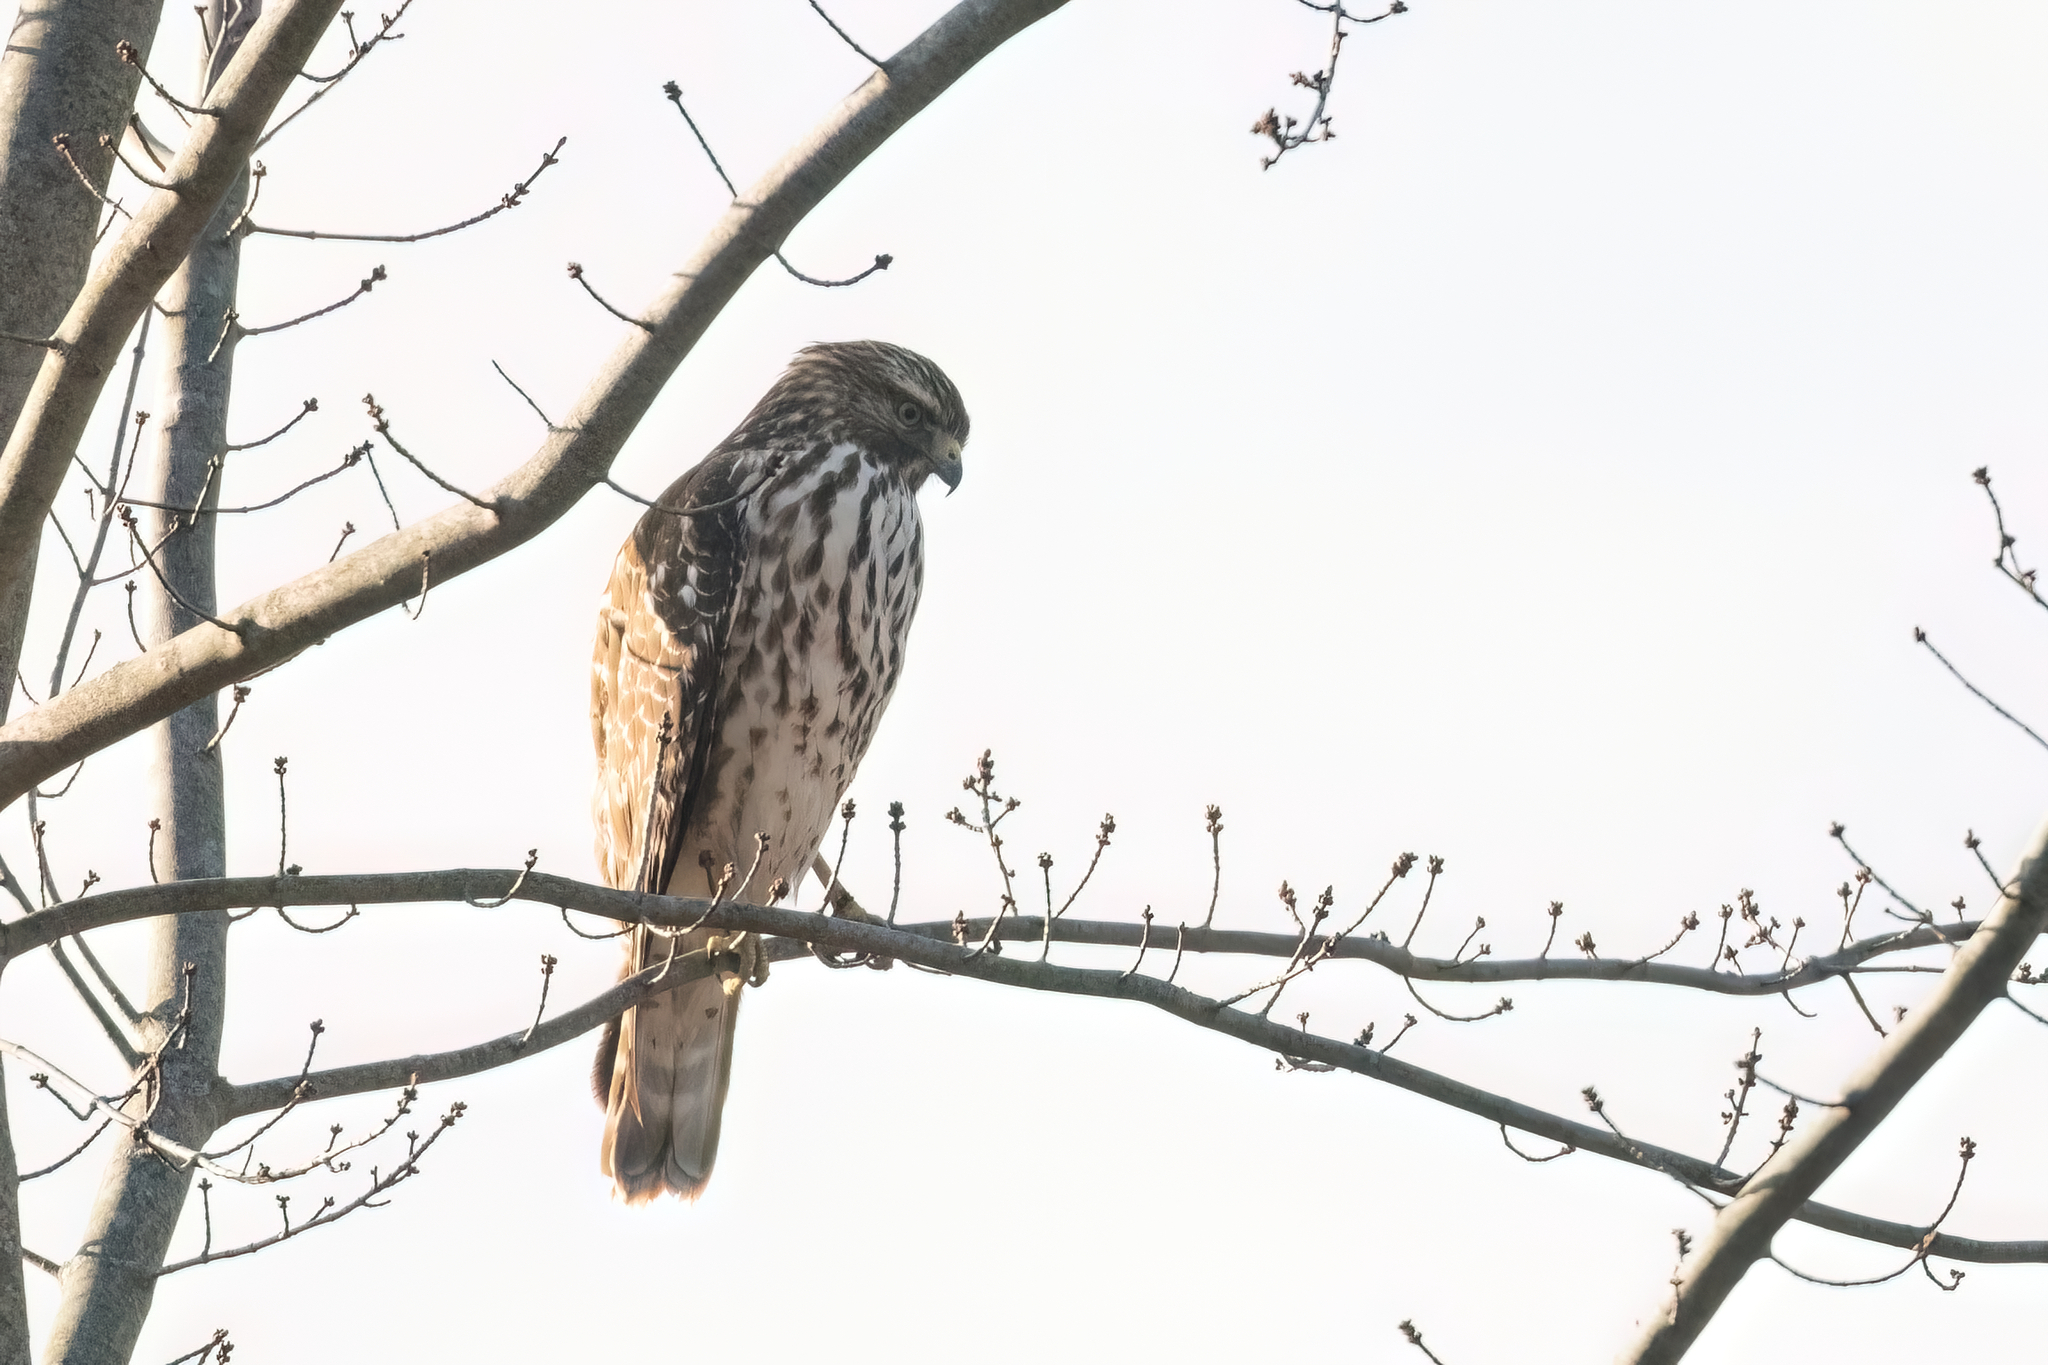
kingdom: Animalia
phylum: Chordata
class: Aves
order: Accipitriformes
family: Accipitridae
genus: Buteo
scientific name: Buteo lineatus
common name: Red-shouldered hawk
